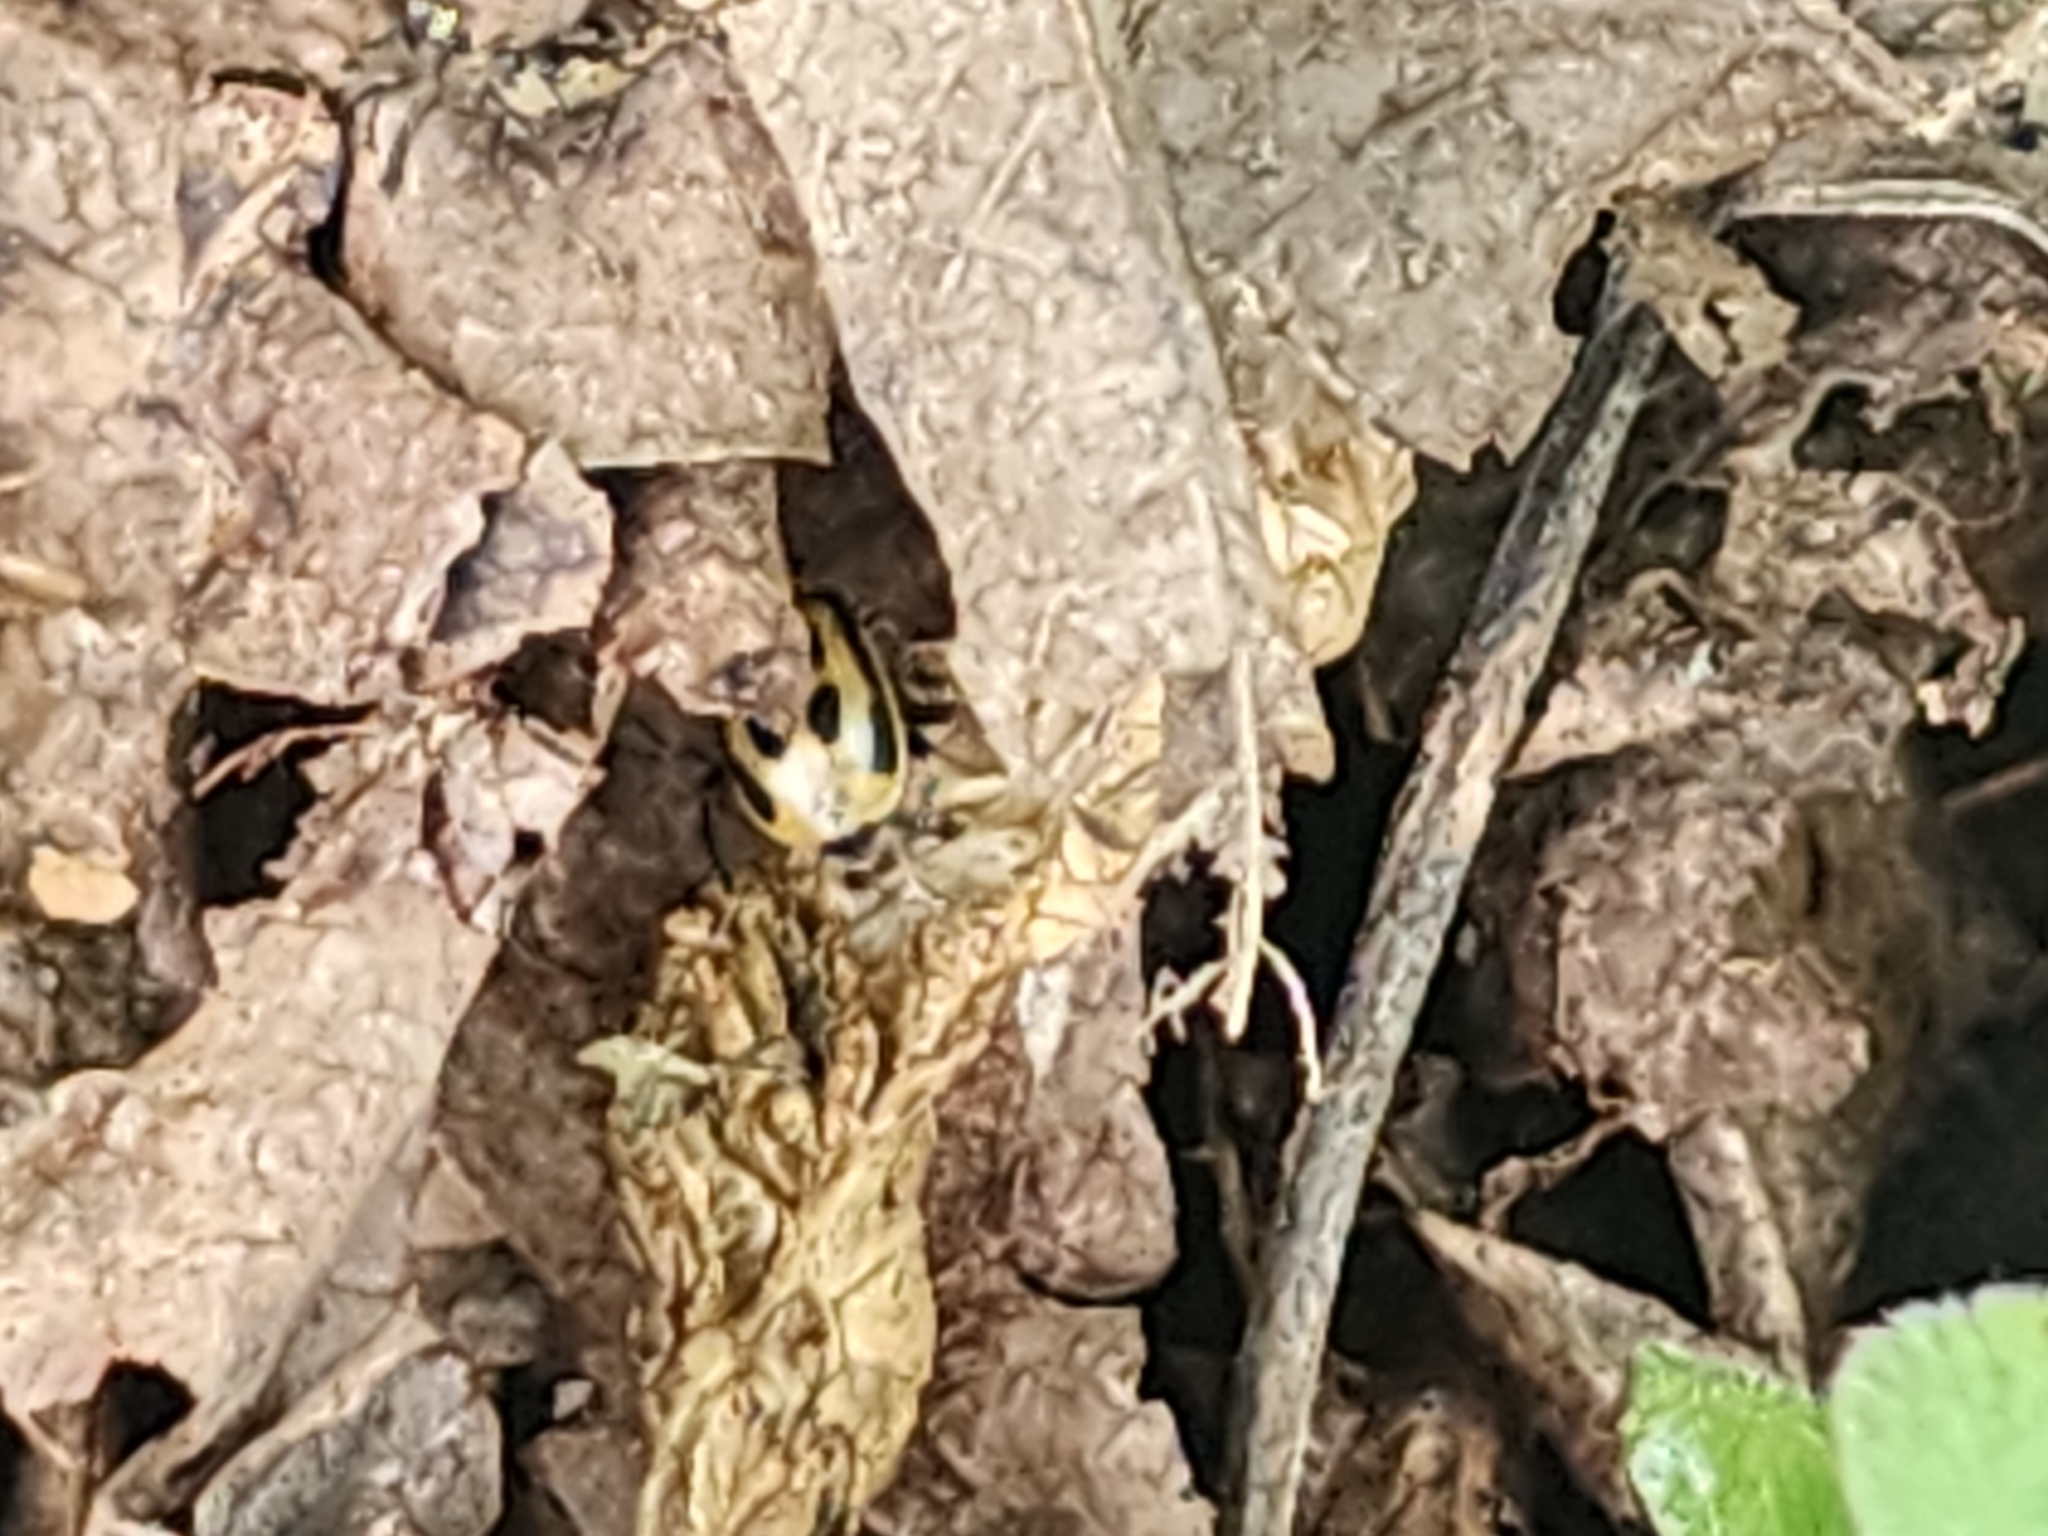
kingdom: Animalia
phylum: Arthropoda
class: Insecta
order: Coleoptera
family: Chrysomelidae
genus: Cerotoma
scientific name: Cerotoma trifurcata
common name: Bean leaf beetle
